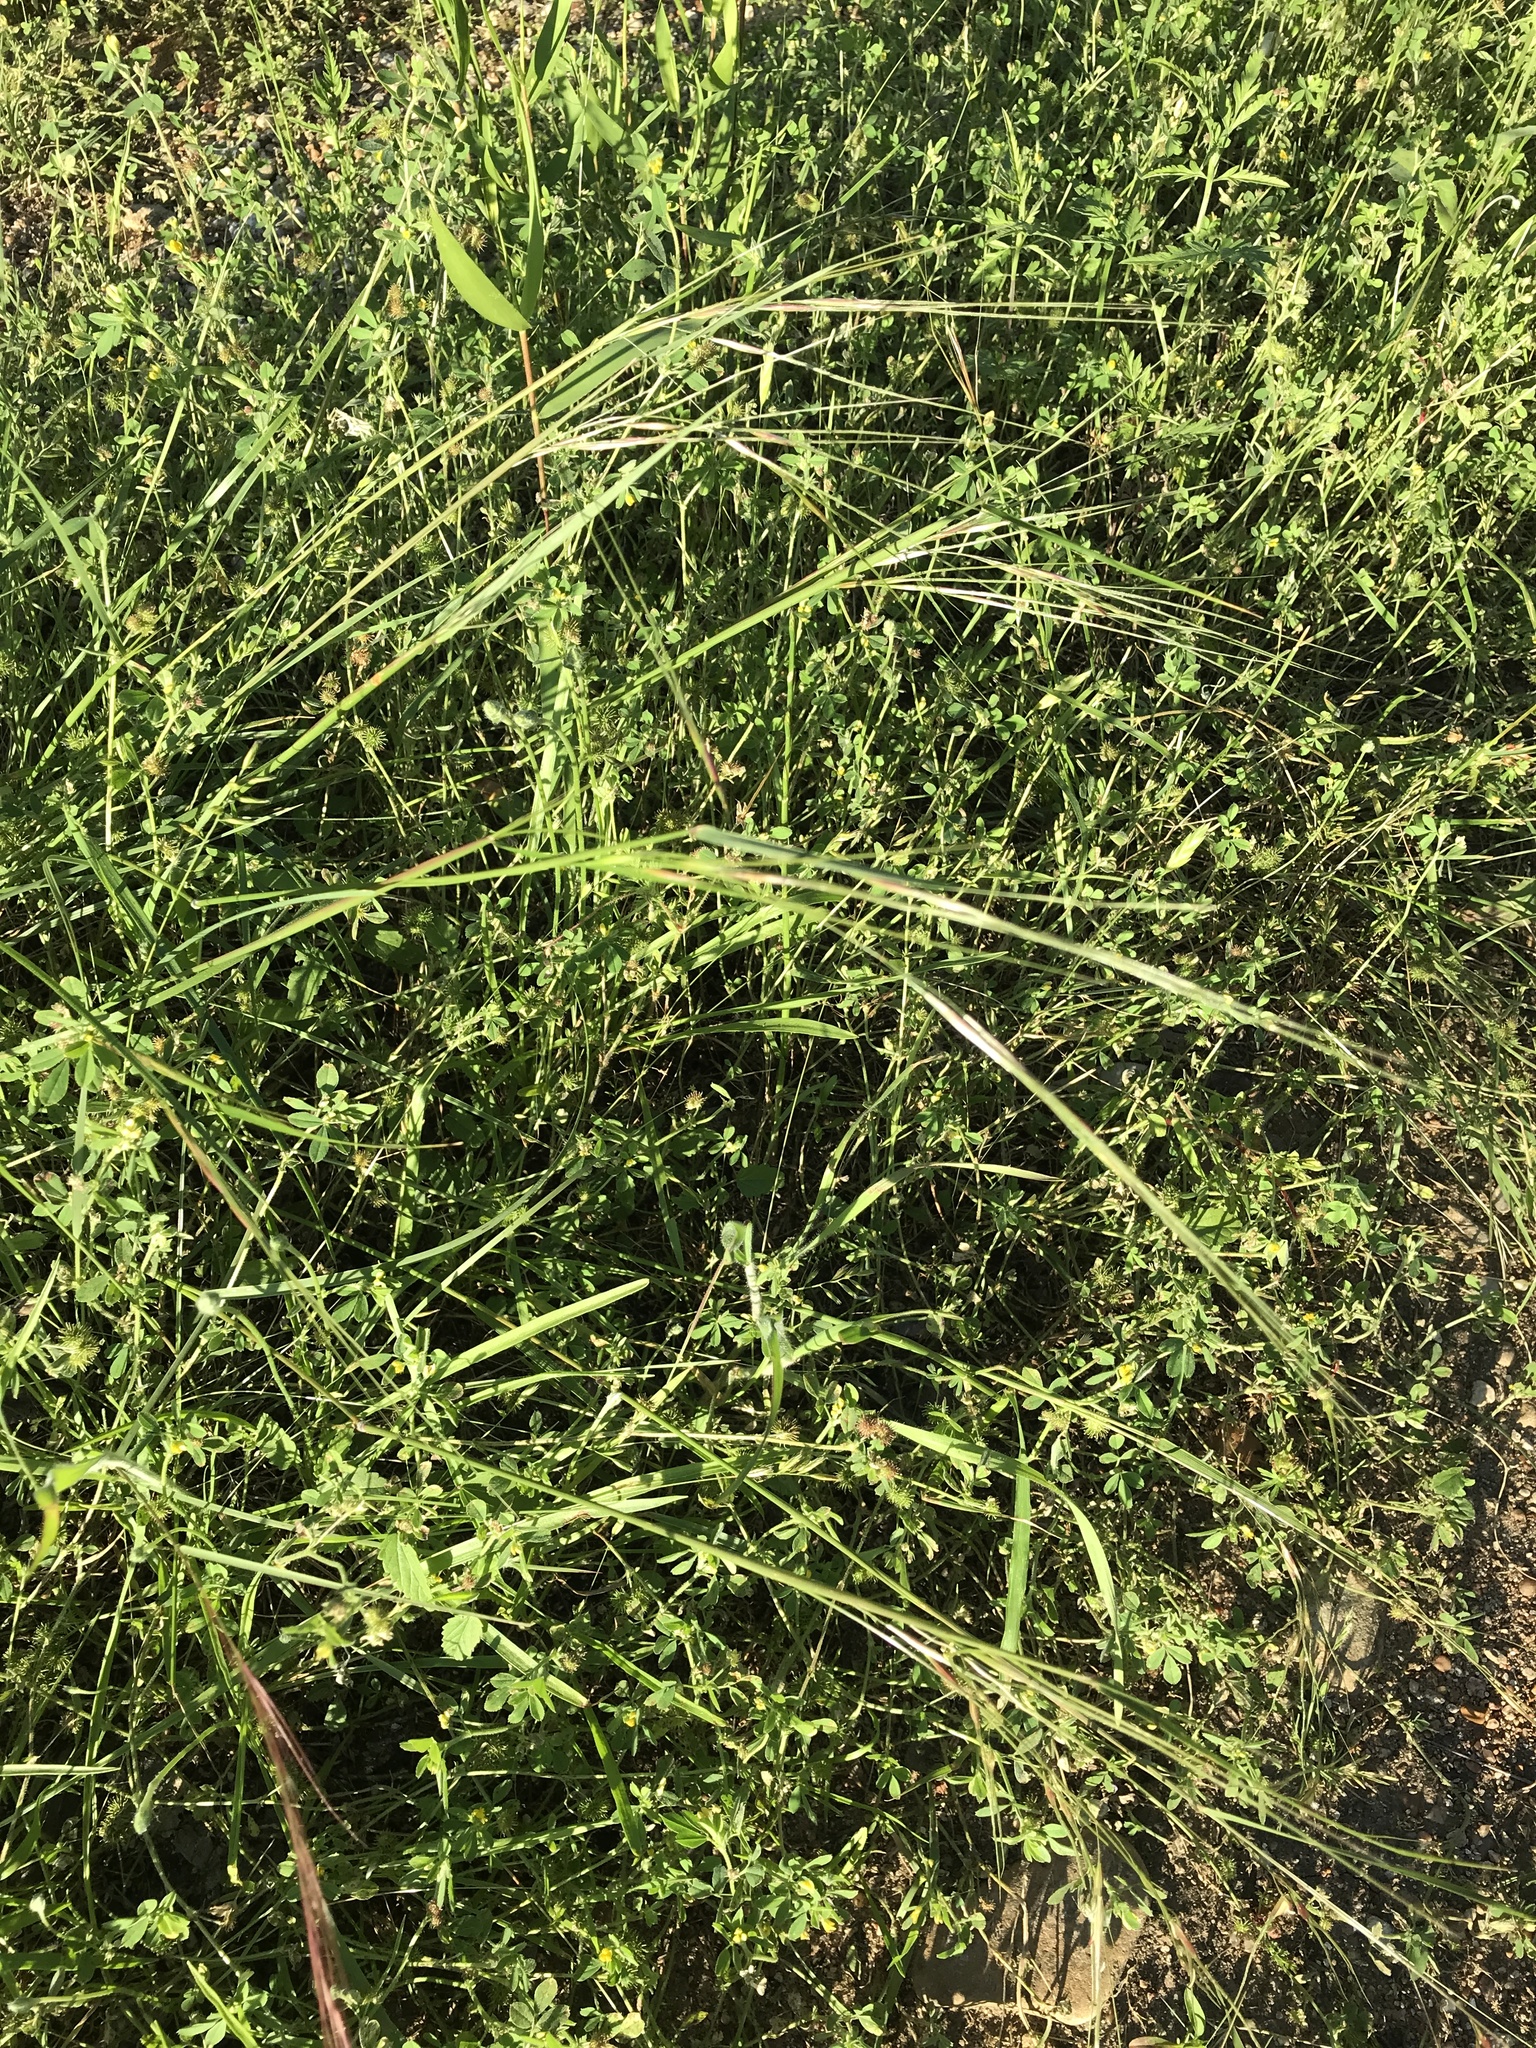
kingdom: Plantae
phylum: Tracheophyta
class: Liliopsida
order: Poales
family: Poaceae
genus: Nassella
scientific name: Nassella leucotricha
